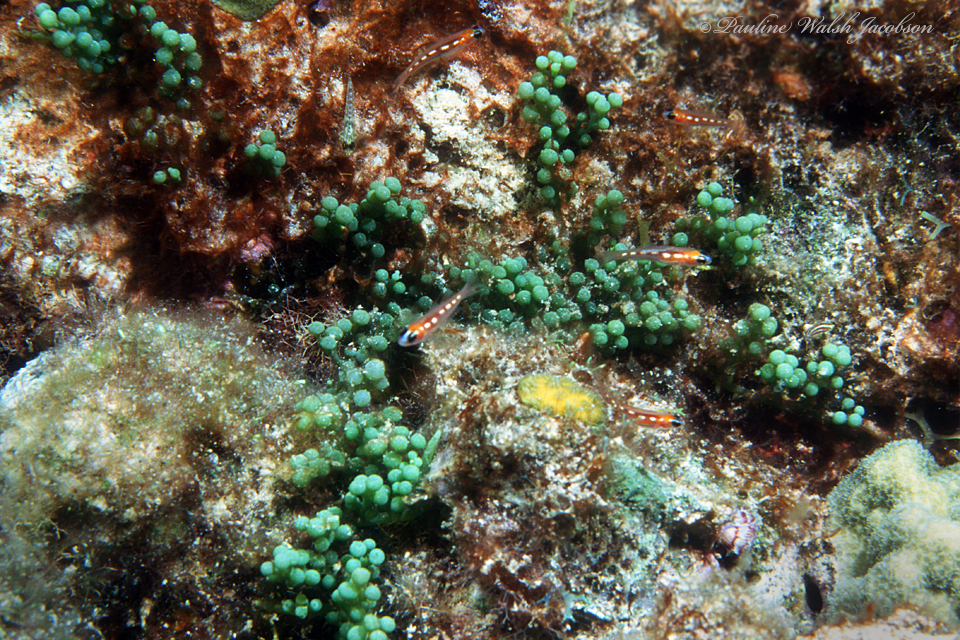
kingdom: Plantae
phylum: Chlorophyta
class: Ulvophyceae
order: Bryopsidales
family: Caulerpaceae
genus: Caulerpa
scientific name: Caulerpa racemosa
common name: Green grape algae
